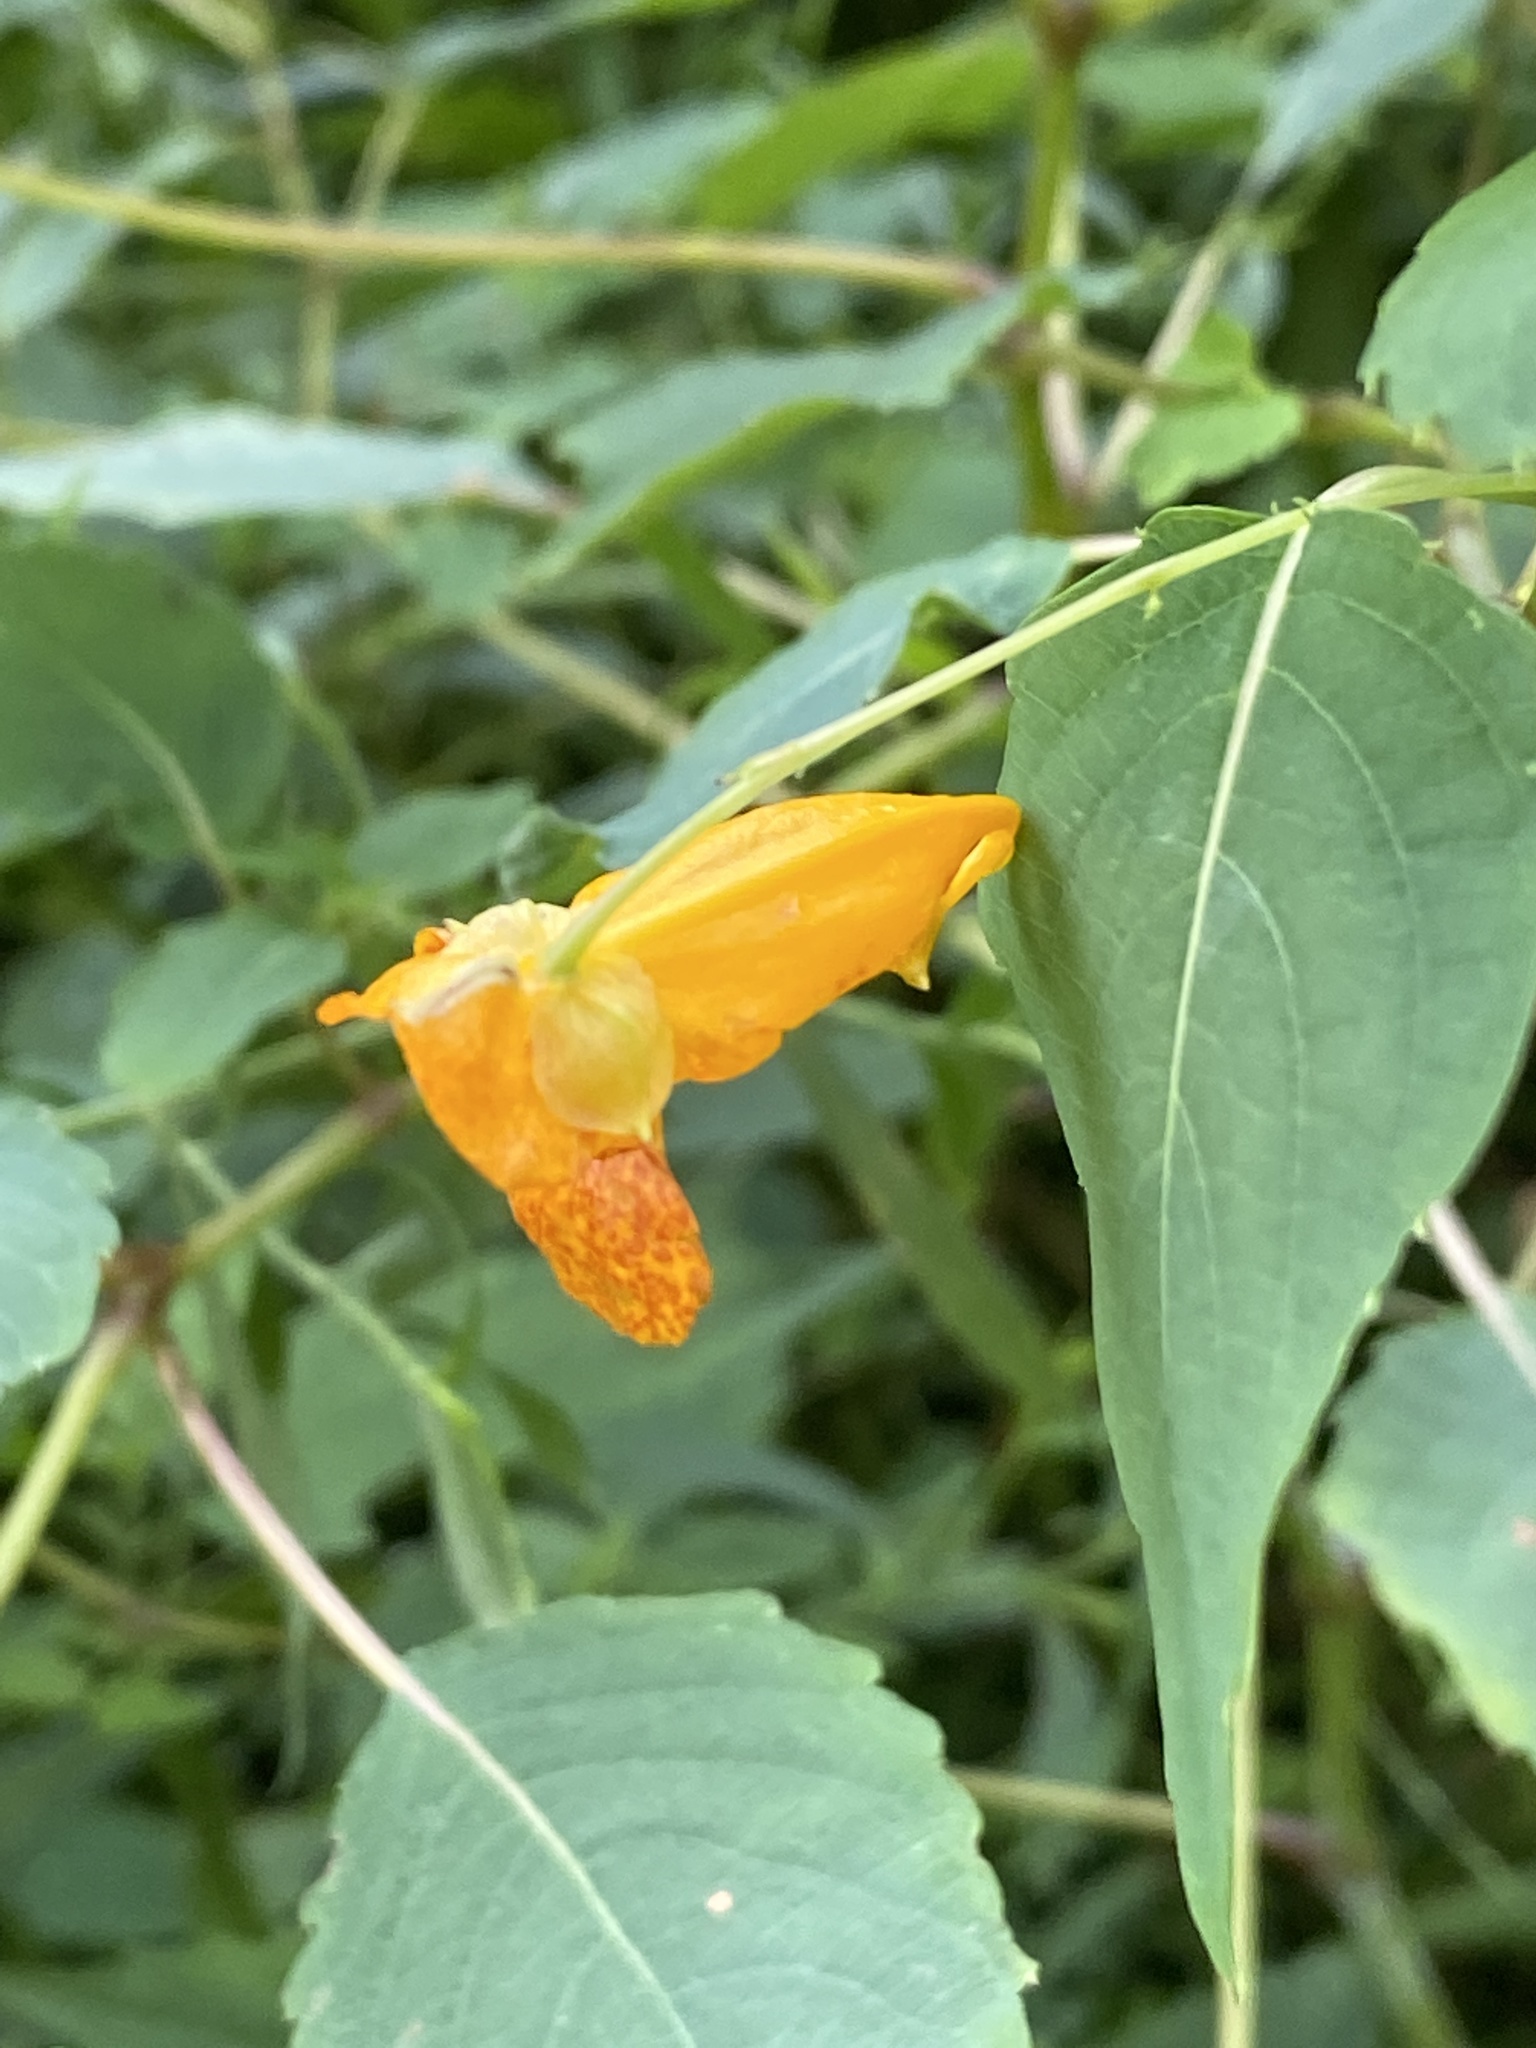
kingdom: Plantae
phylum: Tracheophyta
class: Magnoliopsida
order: Ericales
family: Balsaminaceae
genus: Impatiens
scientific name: Impatiens capensis
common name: Orange balsam
